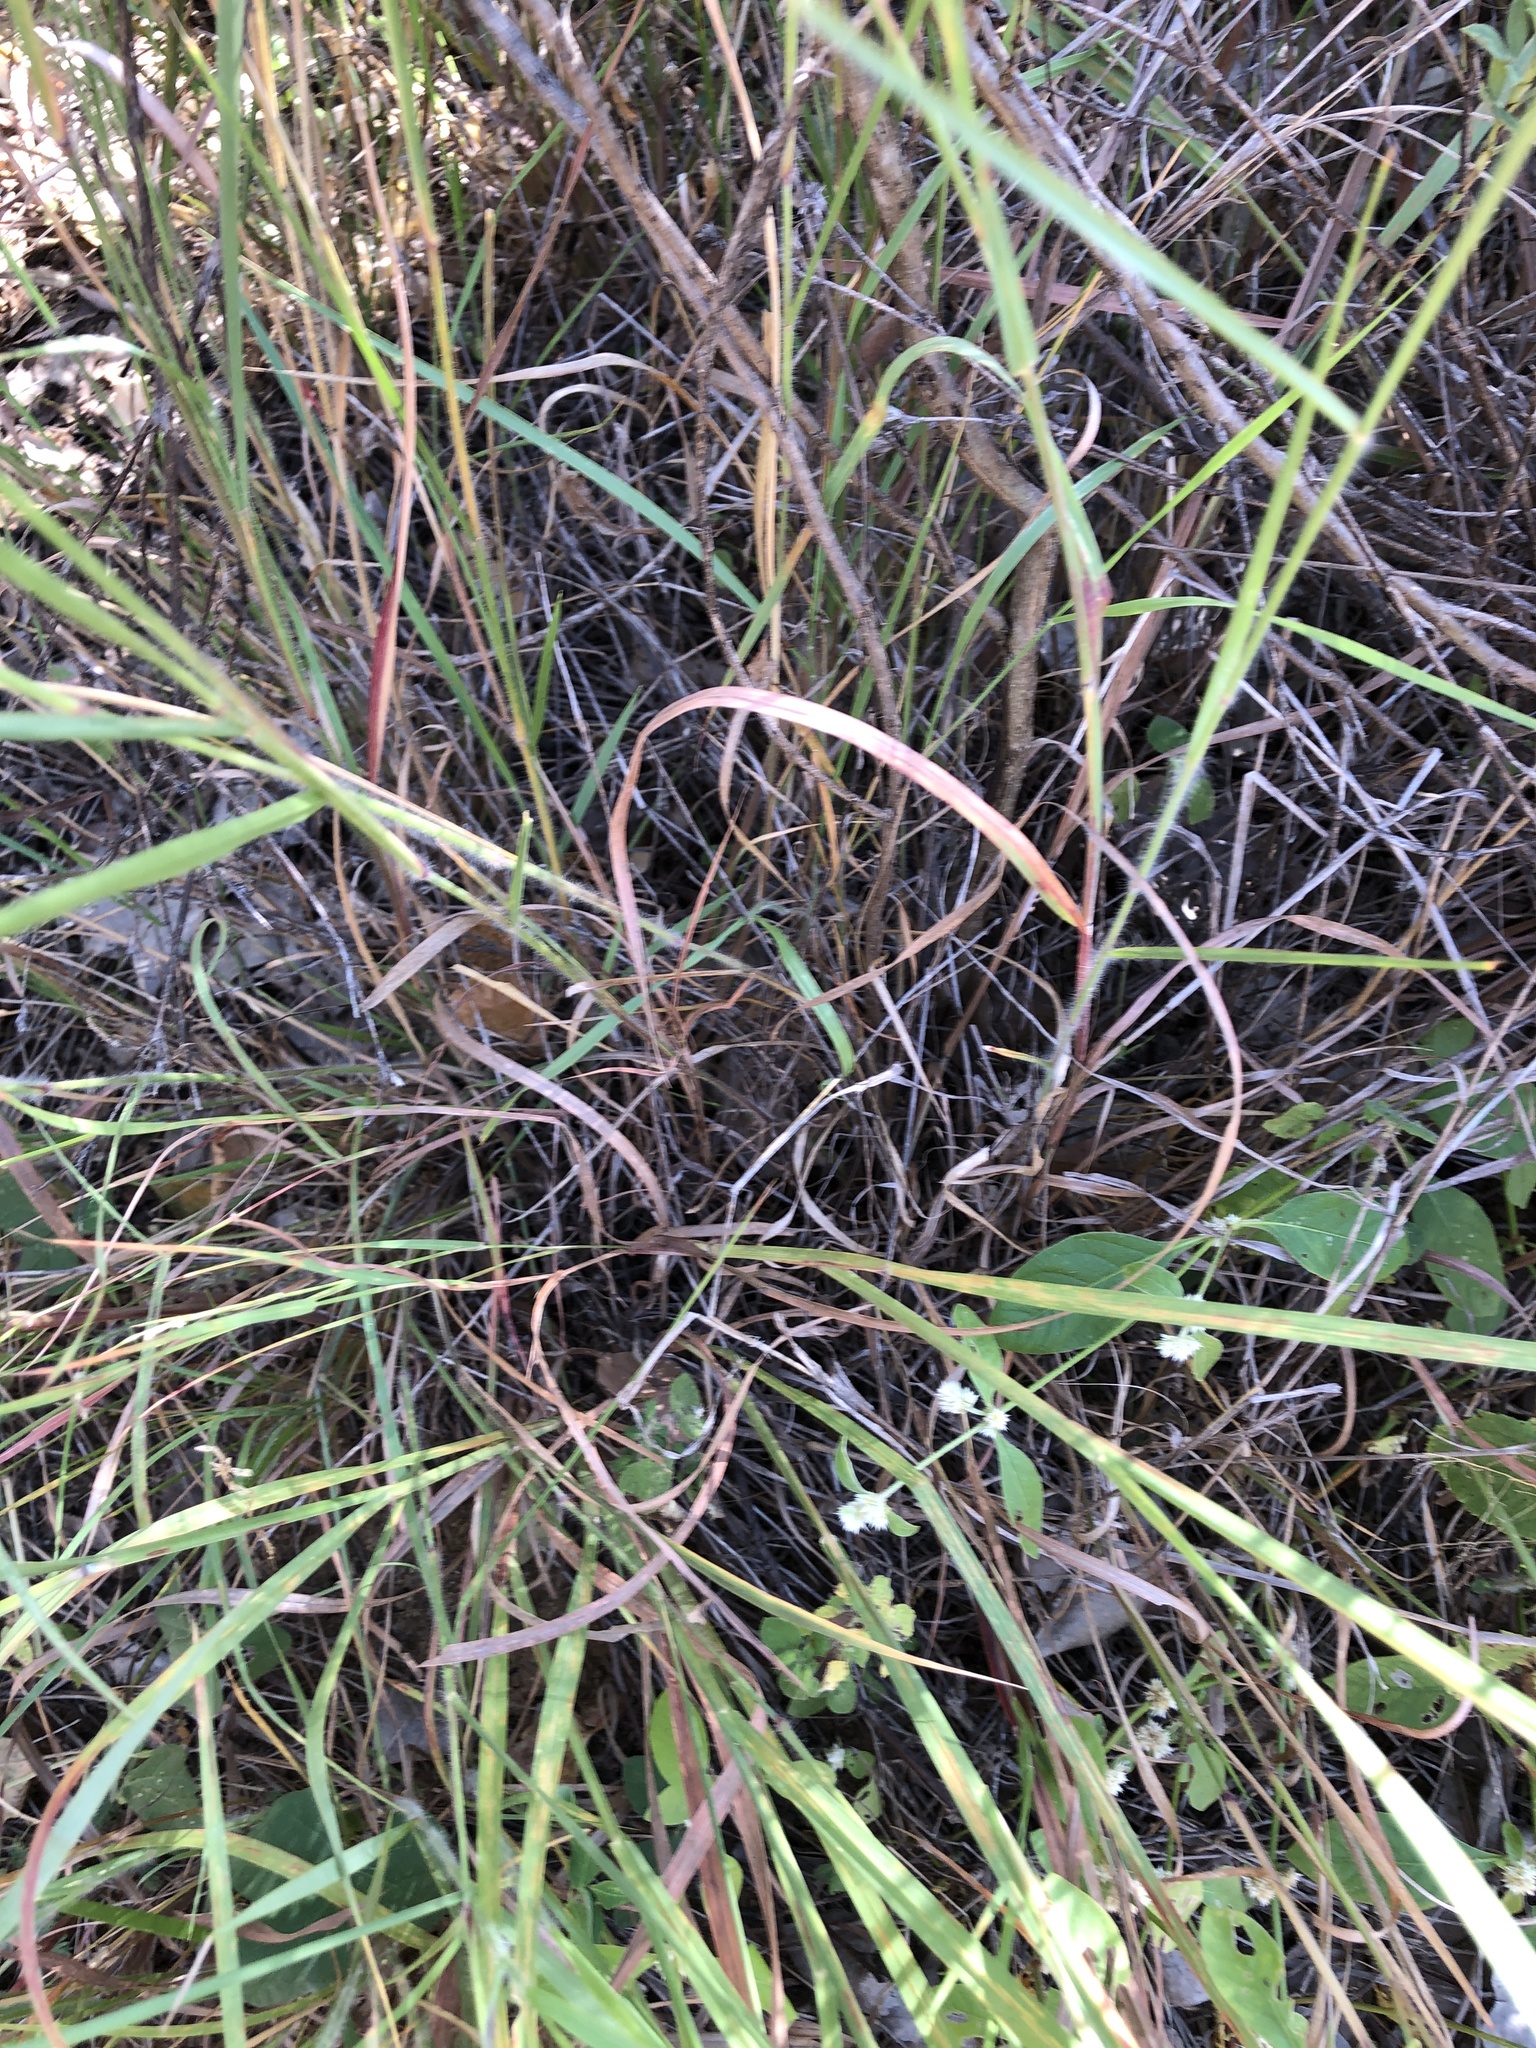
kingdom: Plantae
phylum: Tracheophyta
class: Liliopsida
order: Poales
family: Poaceae
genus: Melinis
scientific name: Melinis repens
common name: Rose natal grass
